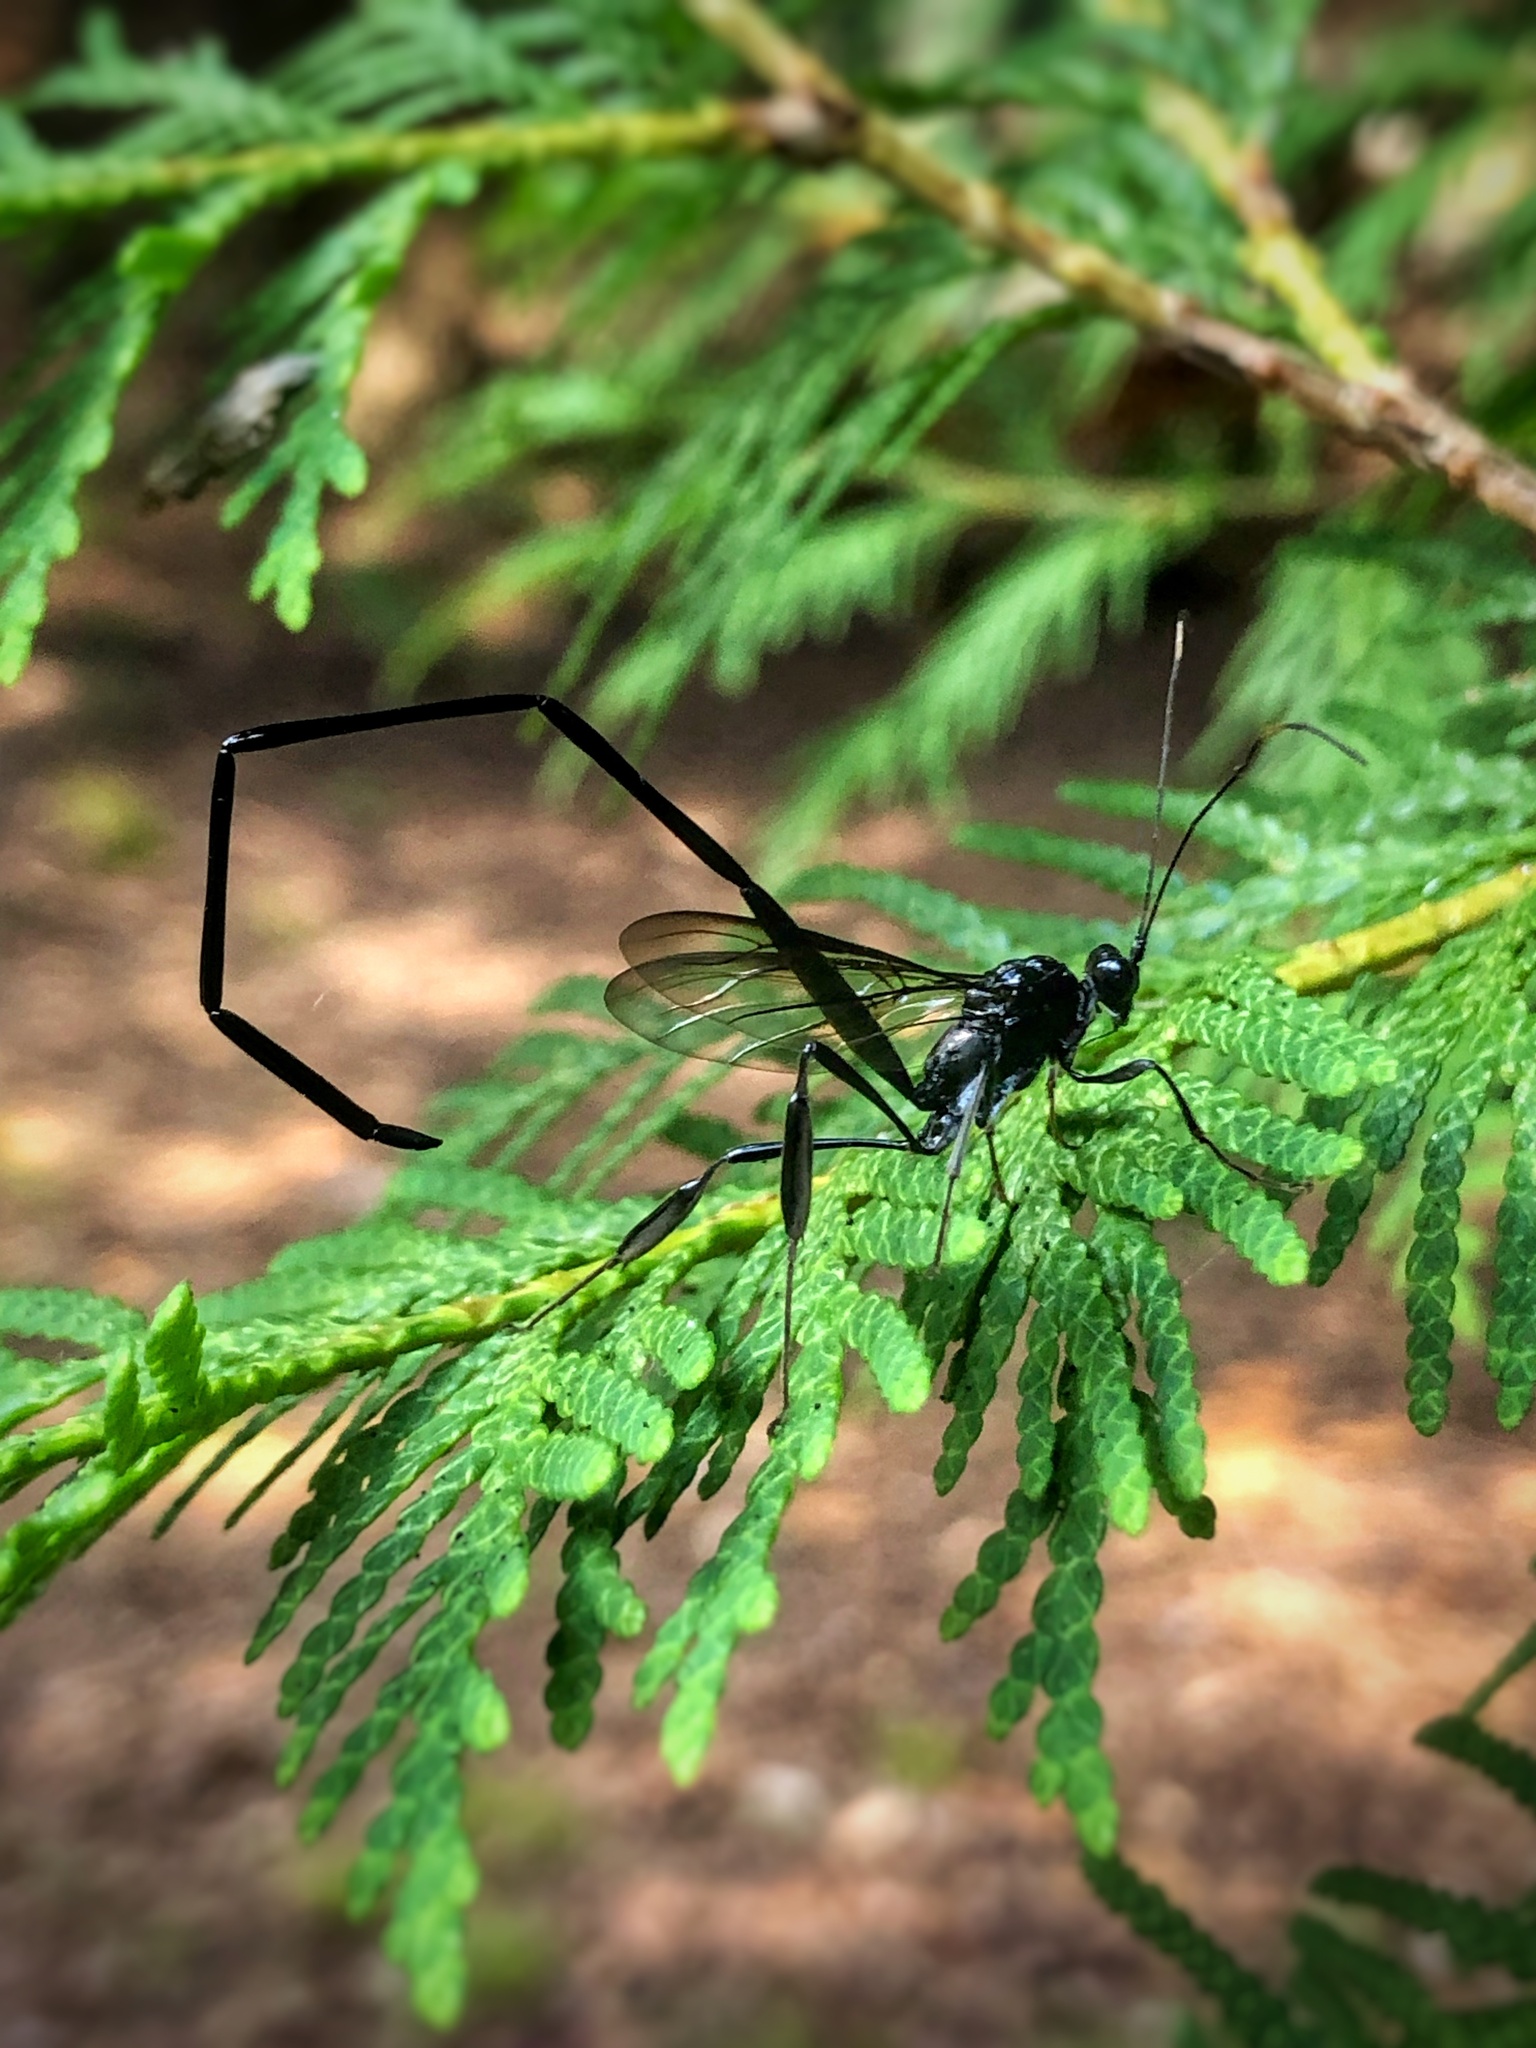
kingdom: Animalia
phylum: Arthropoda
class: Insecta
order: Hymenoptera
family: Pelecinidae
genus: Pelecinus
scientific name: Pelecinus polyturator
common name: American pelecinid wasp
